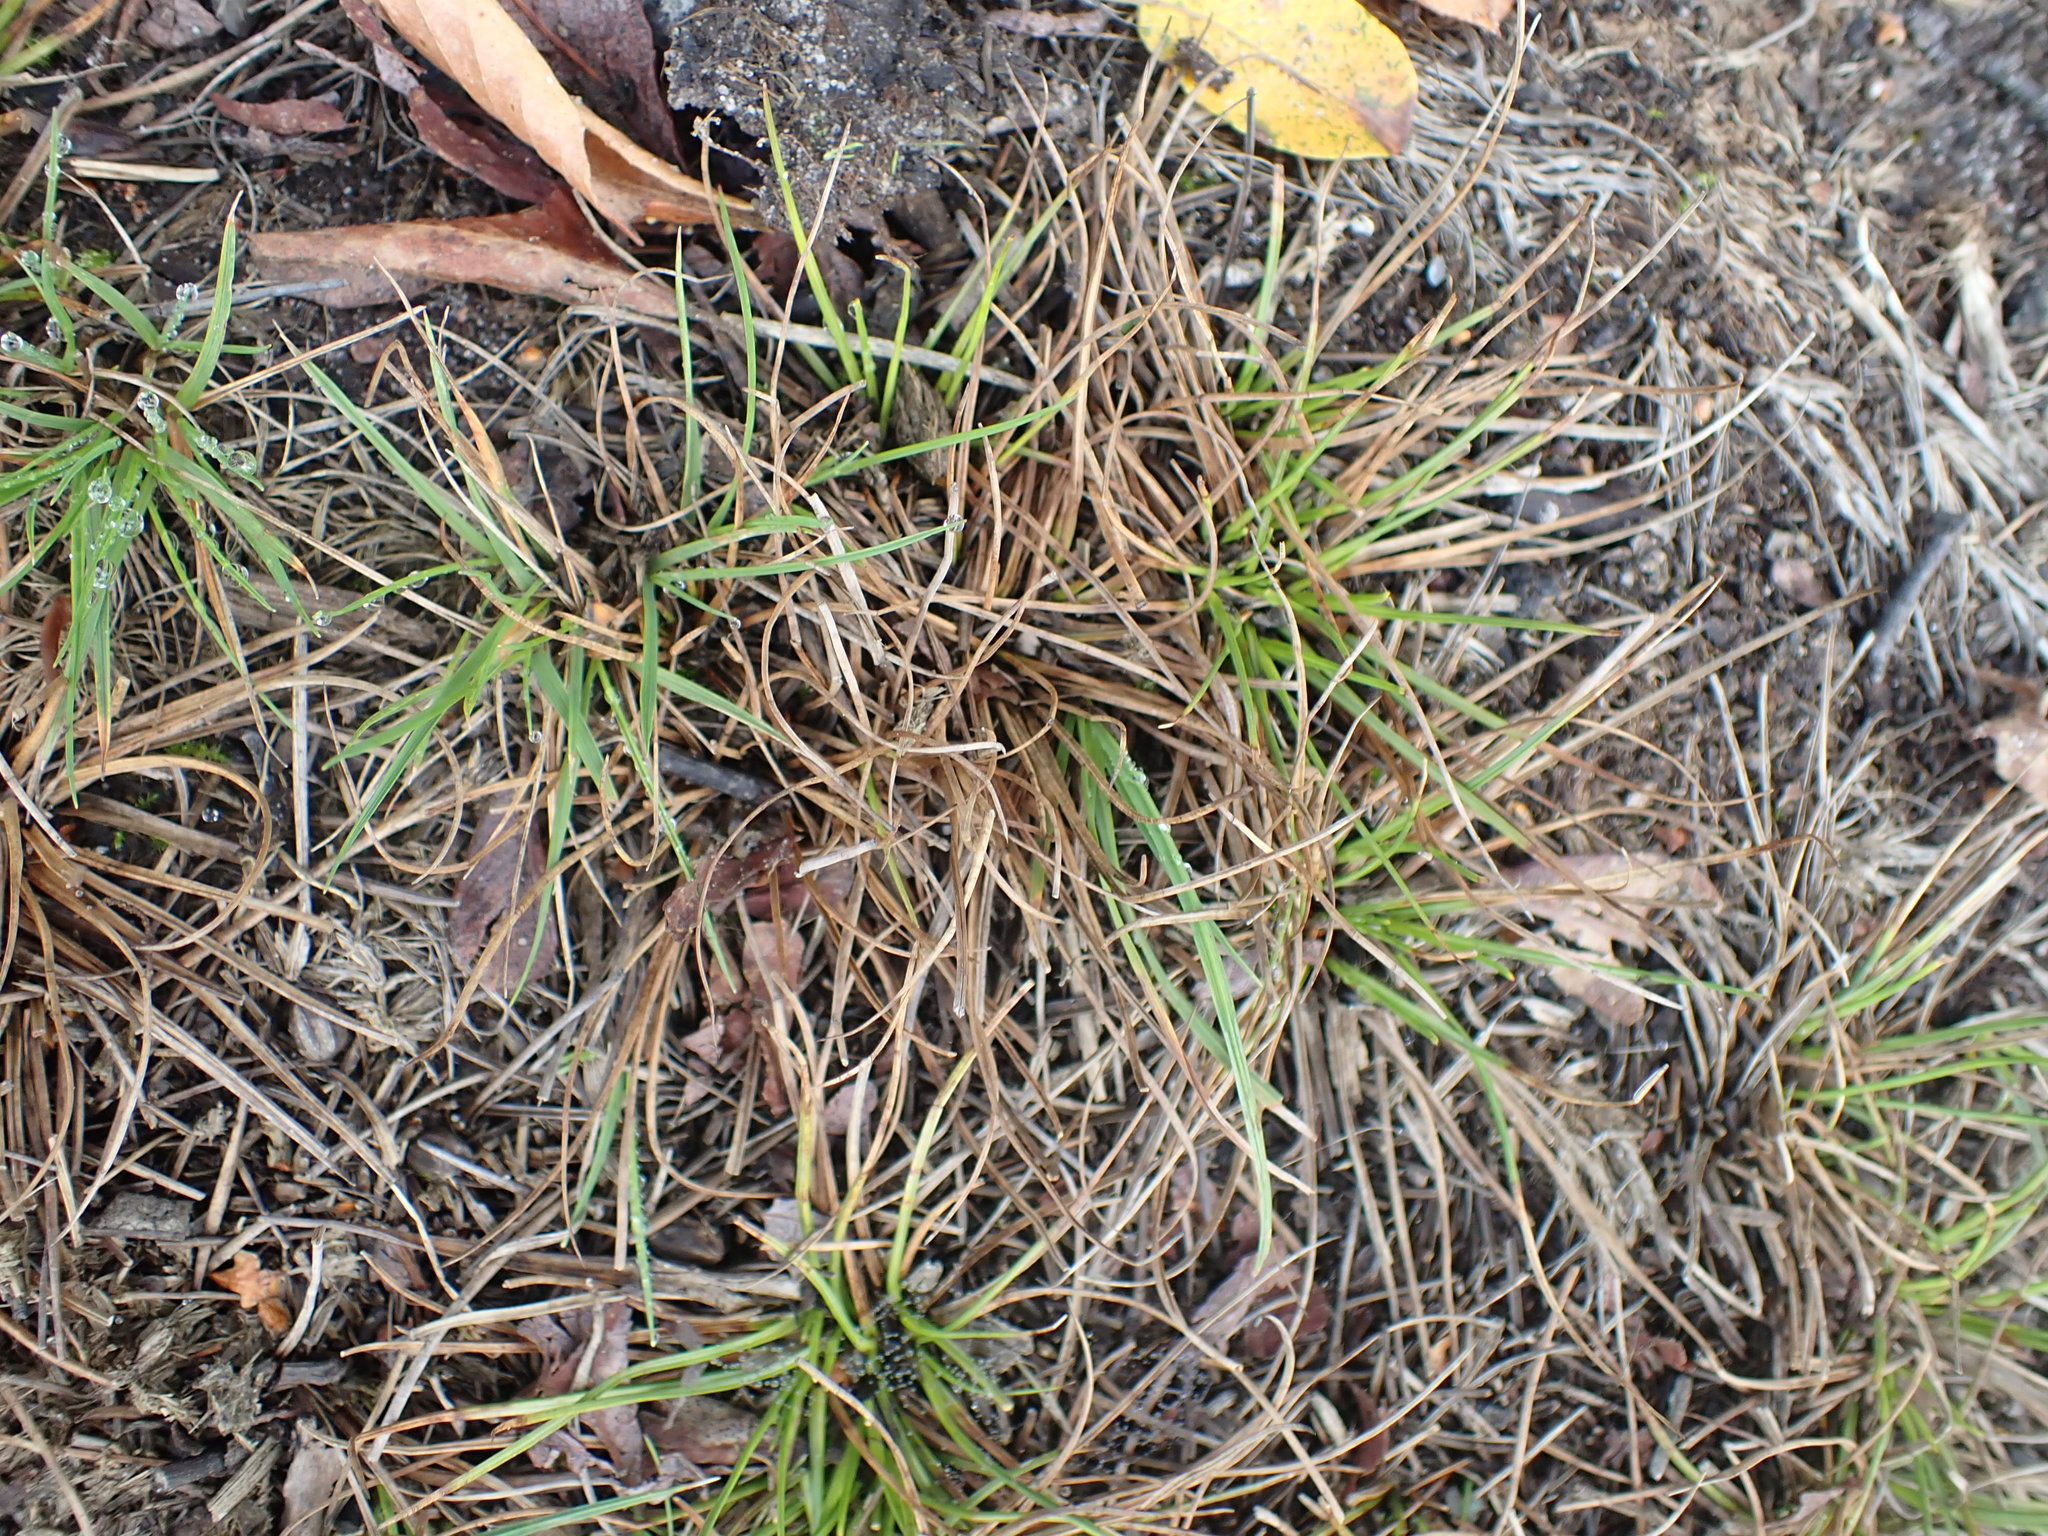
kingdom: Plantae
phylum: Tracheophyta
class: Liliopsida
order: Poales
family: Juncaceae
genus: Juncus
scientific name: Juncus squarrosus
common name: Heath rush
